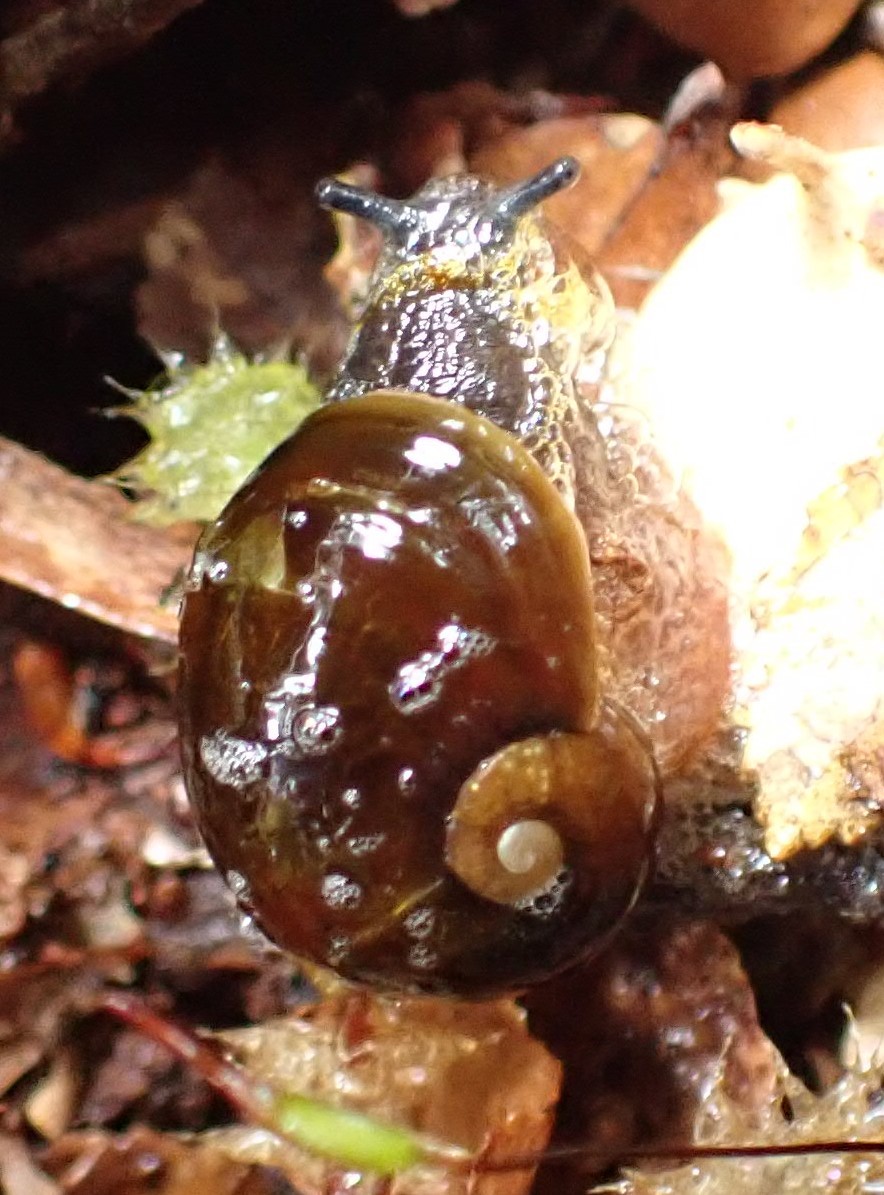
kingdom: Animalia
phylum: Mollusca
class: Gastropoda
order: Stylommatophora
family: Rhytididae
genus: Victaphanta
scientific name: Victaphanta milligani
